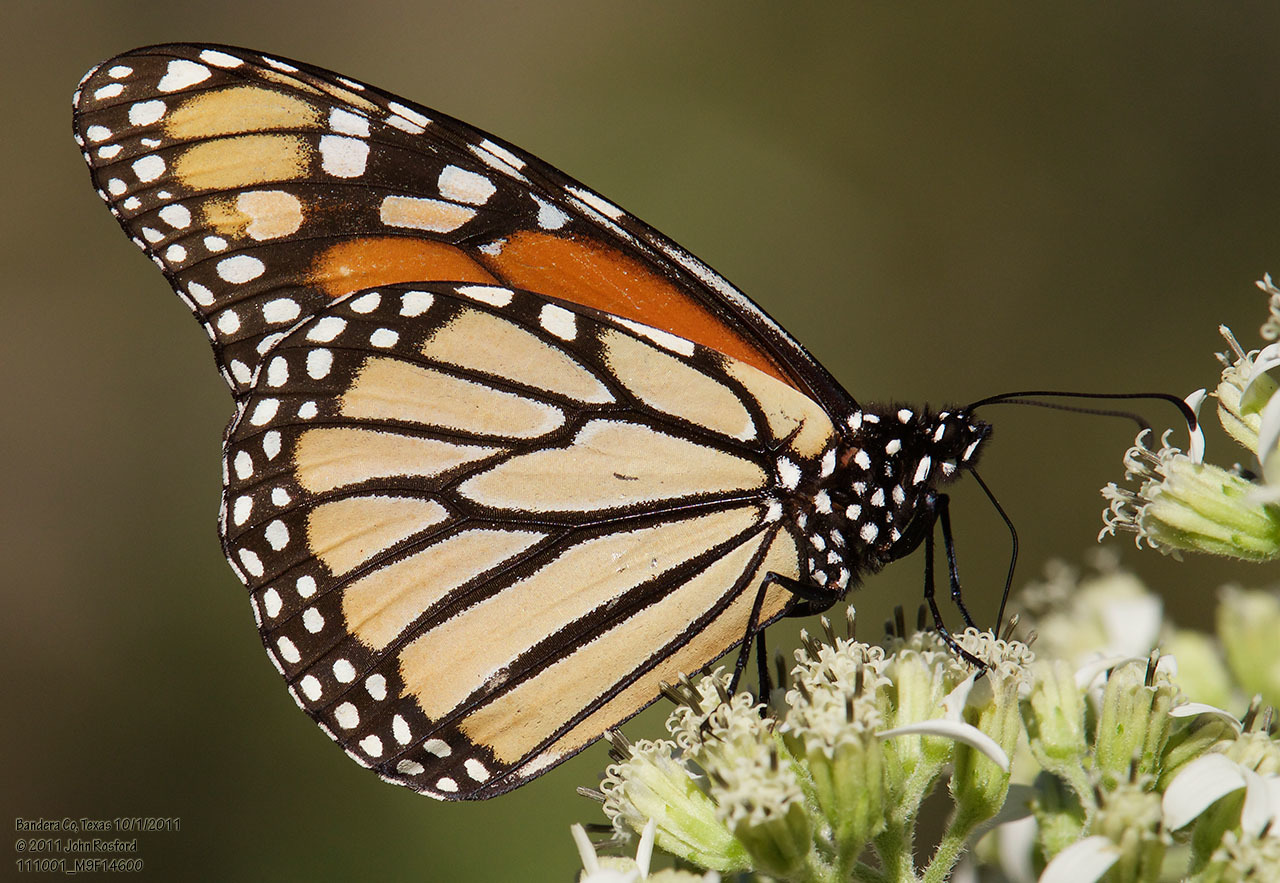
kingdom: Animalia
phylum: Arthropoda
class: Insecta
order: Lepidoptera
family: Nymphalidae
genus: Danaus
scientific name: Danaus plexippus
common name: Monarch
